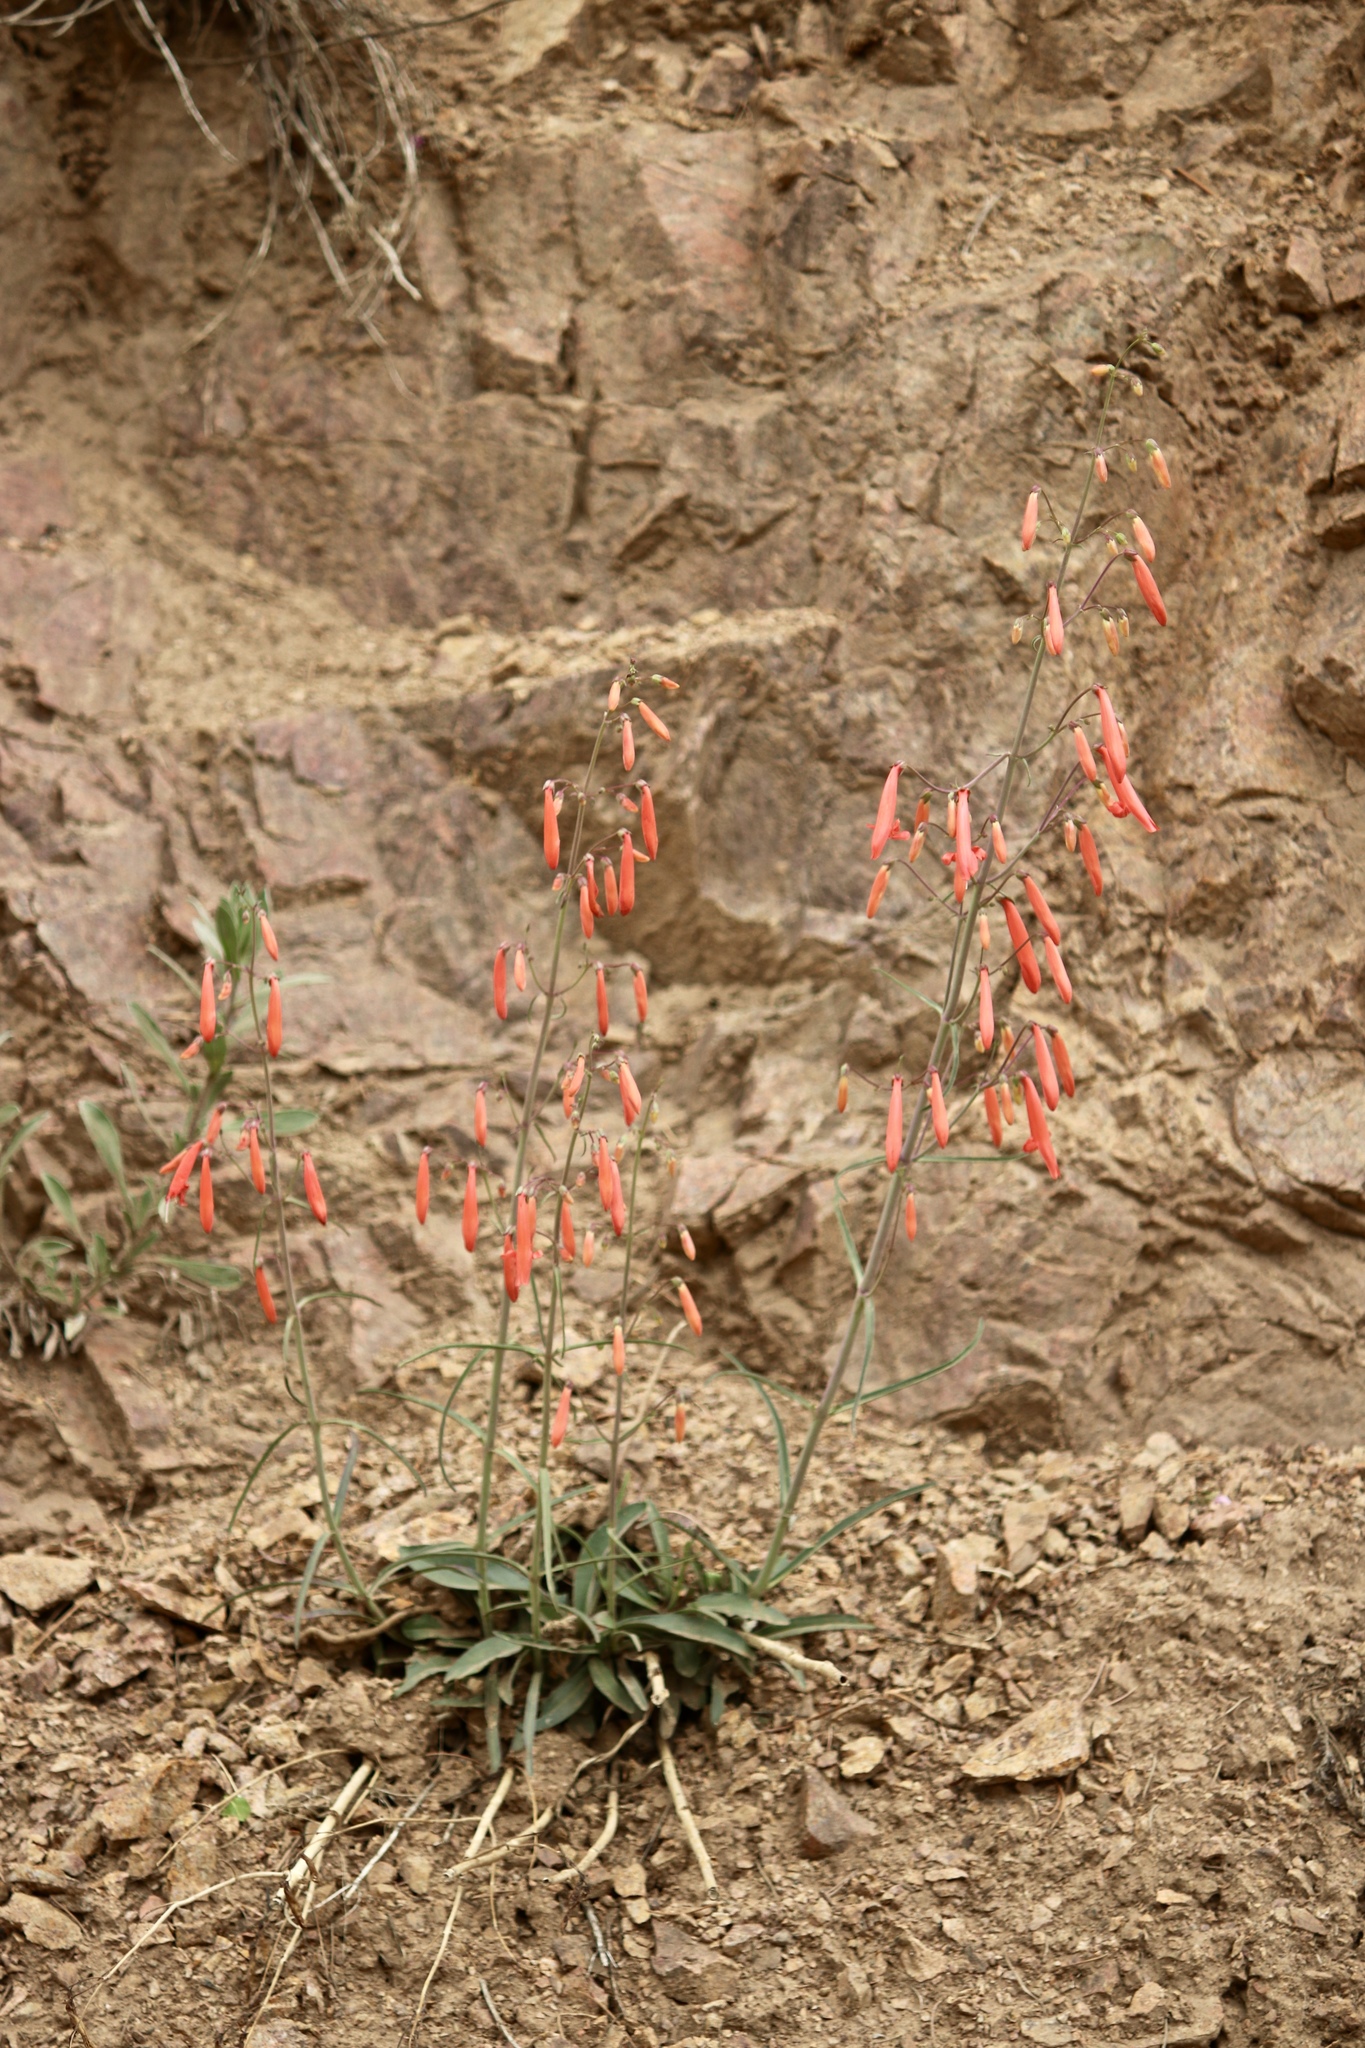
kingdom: Plantae
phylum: Tracheophyta
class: Magnoliopsida
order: Lamiales
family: Plantaginaceae
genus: Penstemon
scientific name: Penstemon barbatus
